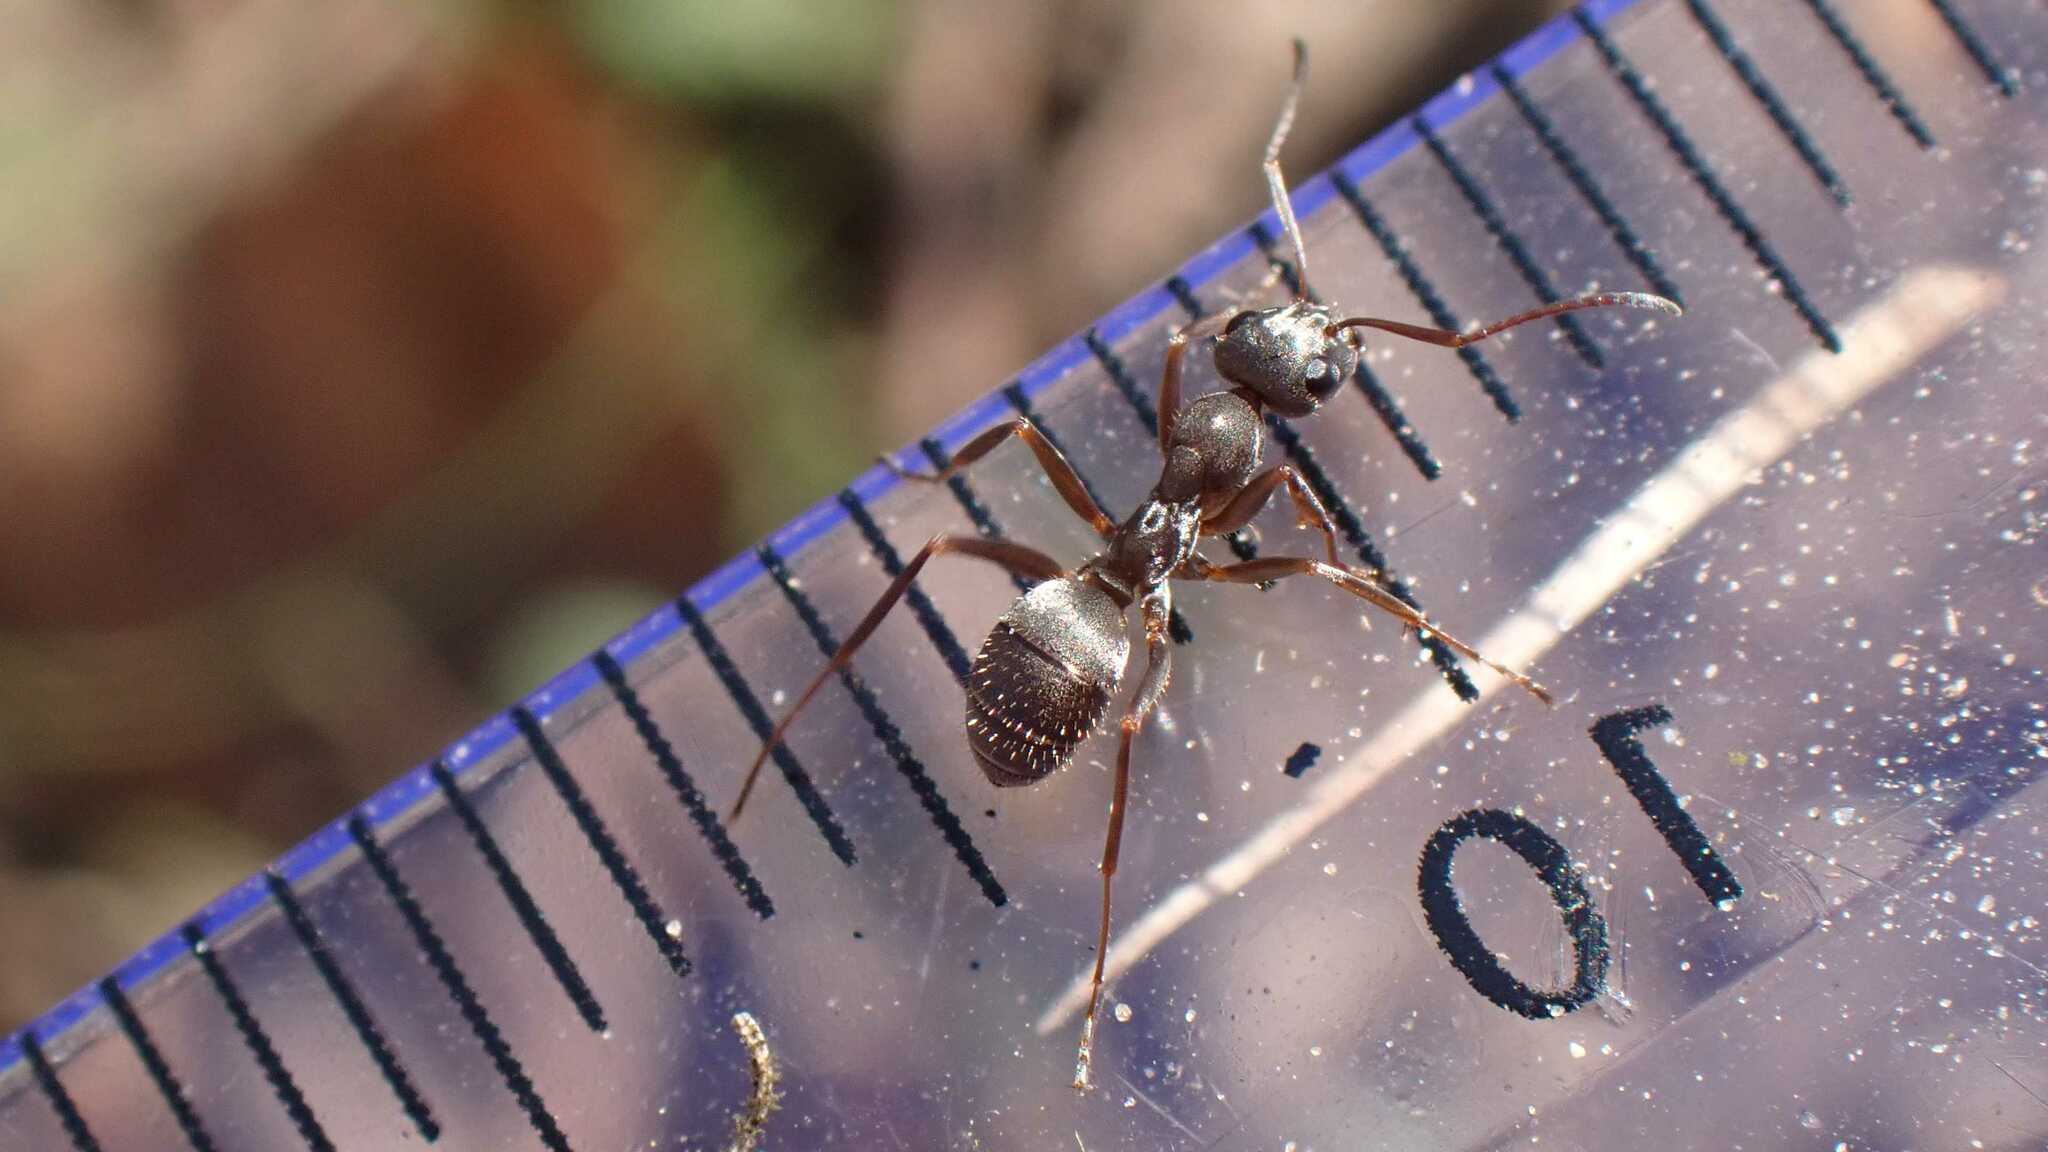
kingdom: Animalia
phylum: Arthropoda
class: Insecta
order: Hymenoptera
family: Formicidae
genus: Formica
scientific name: Formica cinerea
